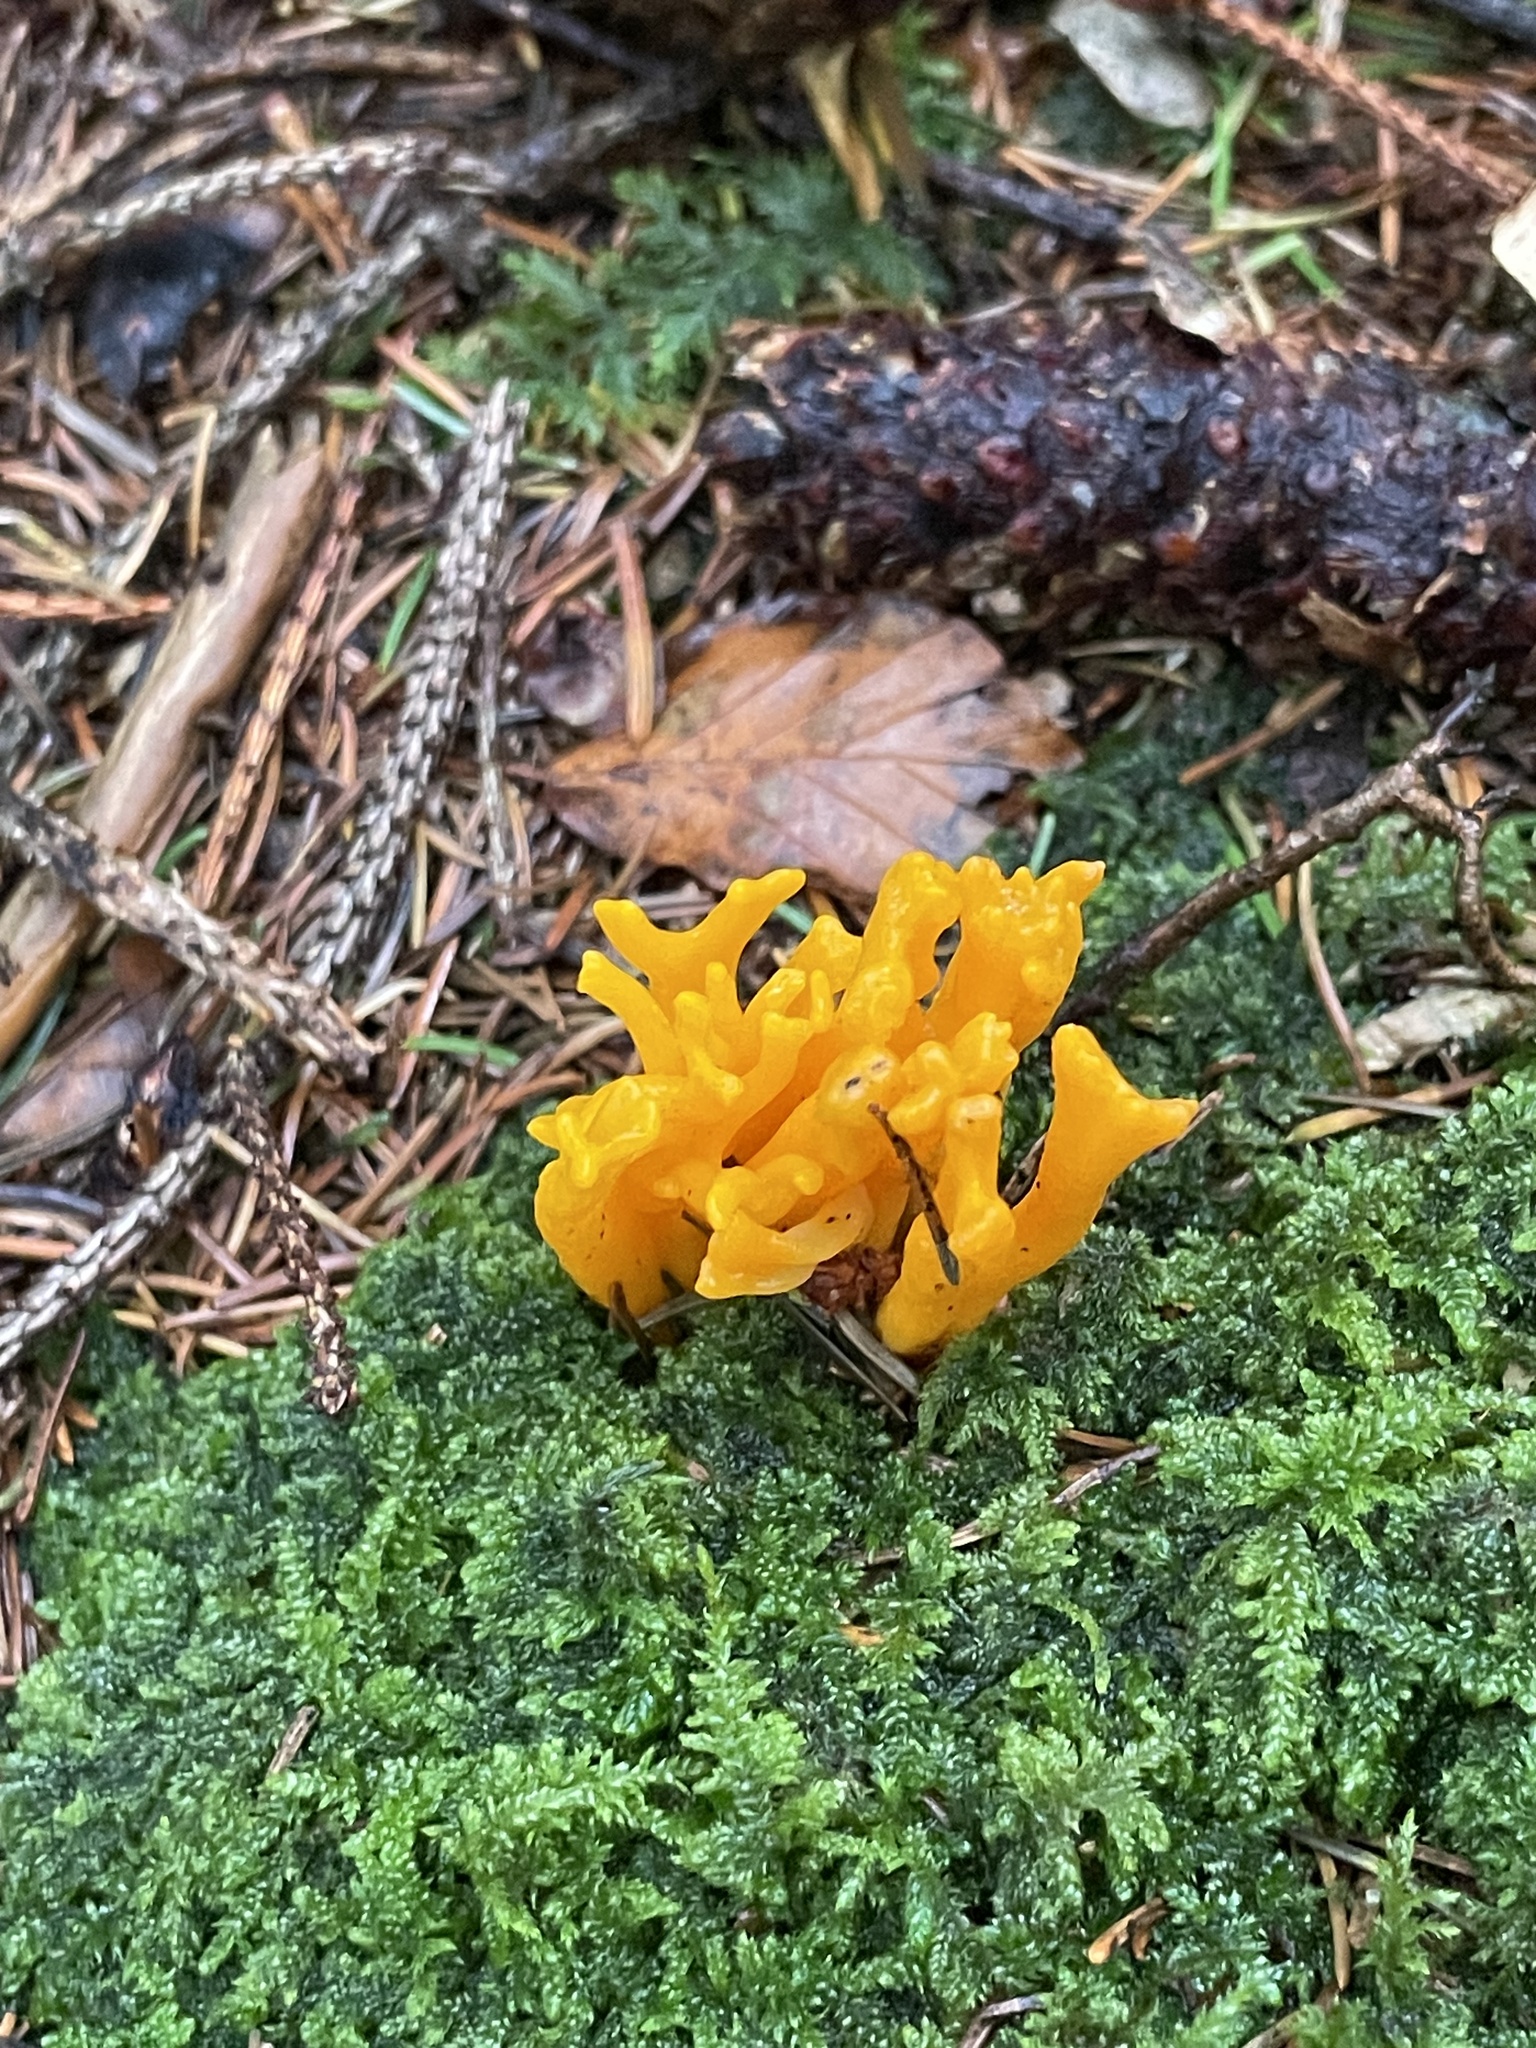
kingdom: Fungi
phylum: Basidiomycota
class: Dacrymycetes
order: Dacrymycetales
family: Dacrymycetaceae
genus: Calocera
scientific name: Calocera viscosa
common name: Yellow stagshorn
